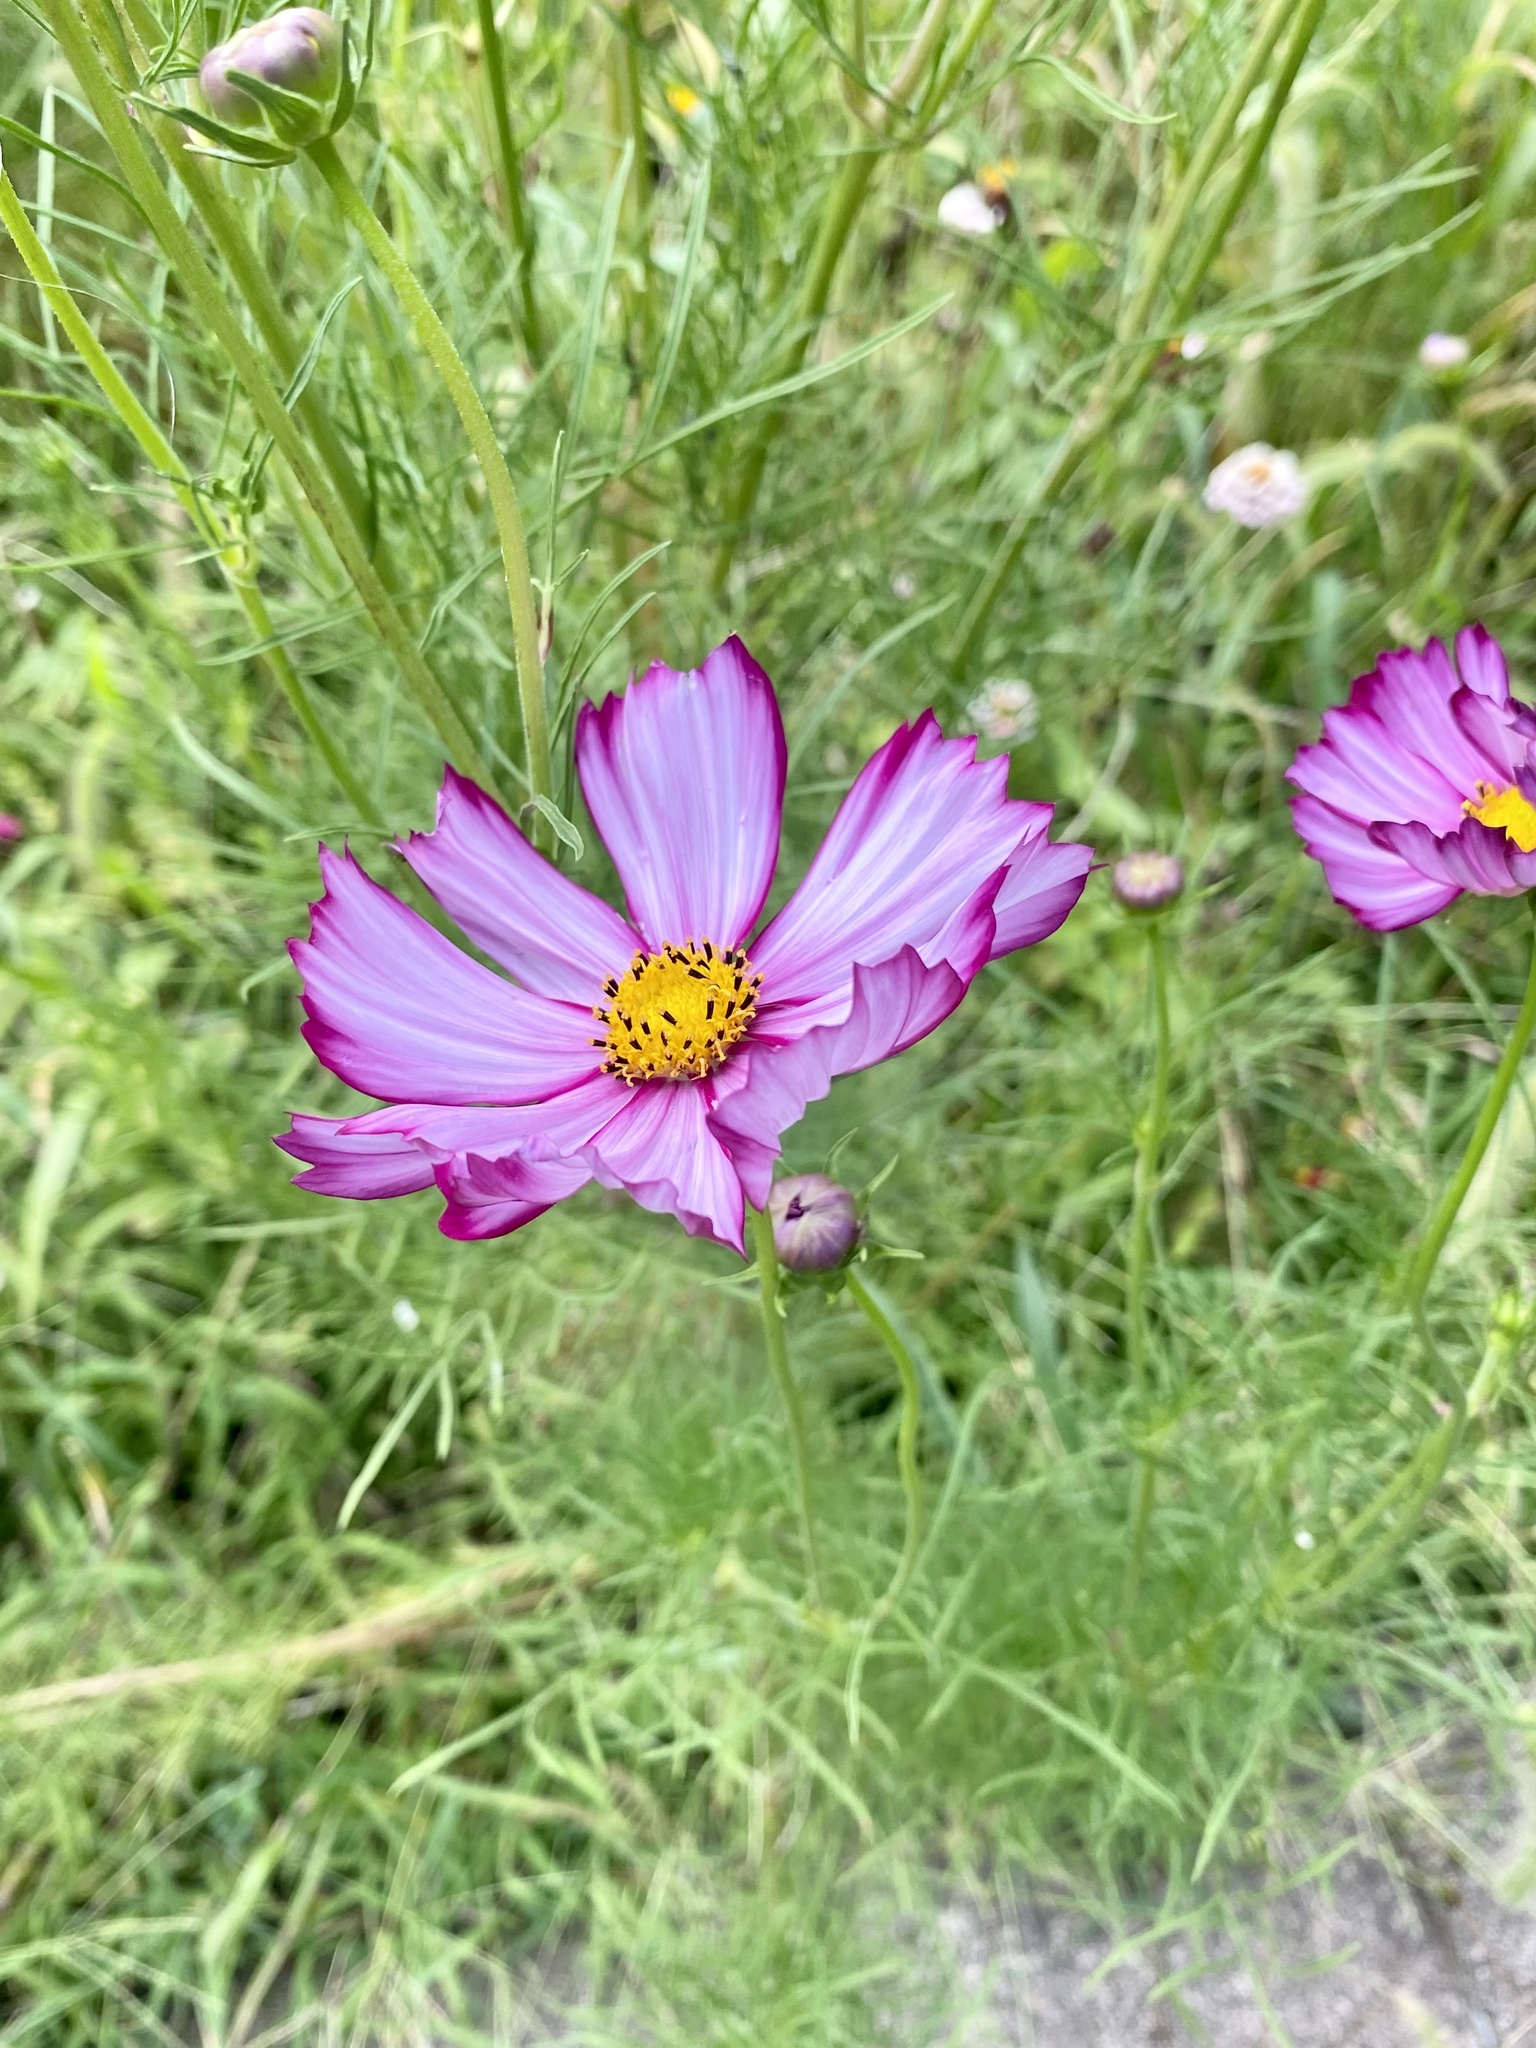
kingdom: Plantae
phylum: Tracheophyta
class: Magnoliopsida
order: Asterales
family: Asteraceae
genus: Cosmos
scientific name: Cosmos bipinnatus
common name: Garden cosmos
